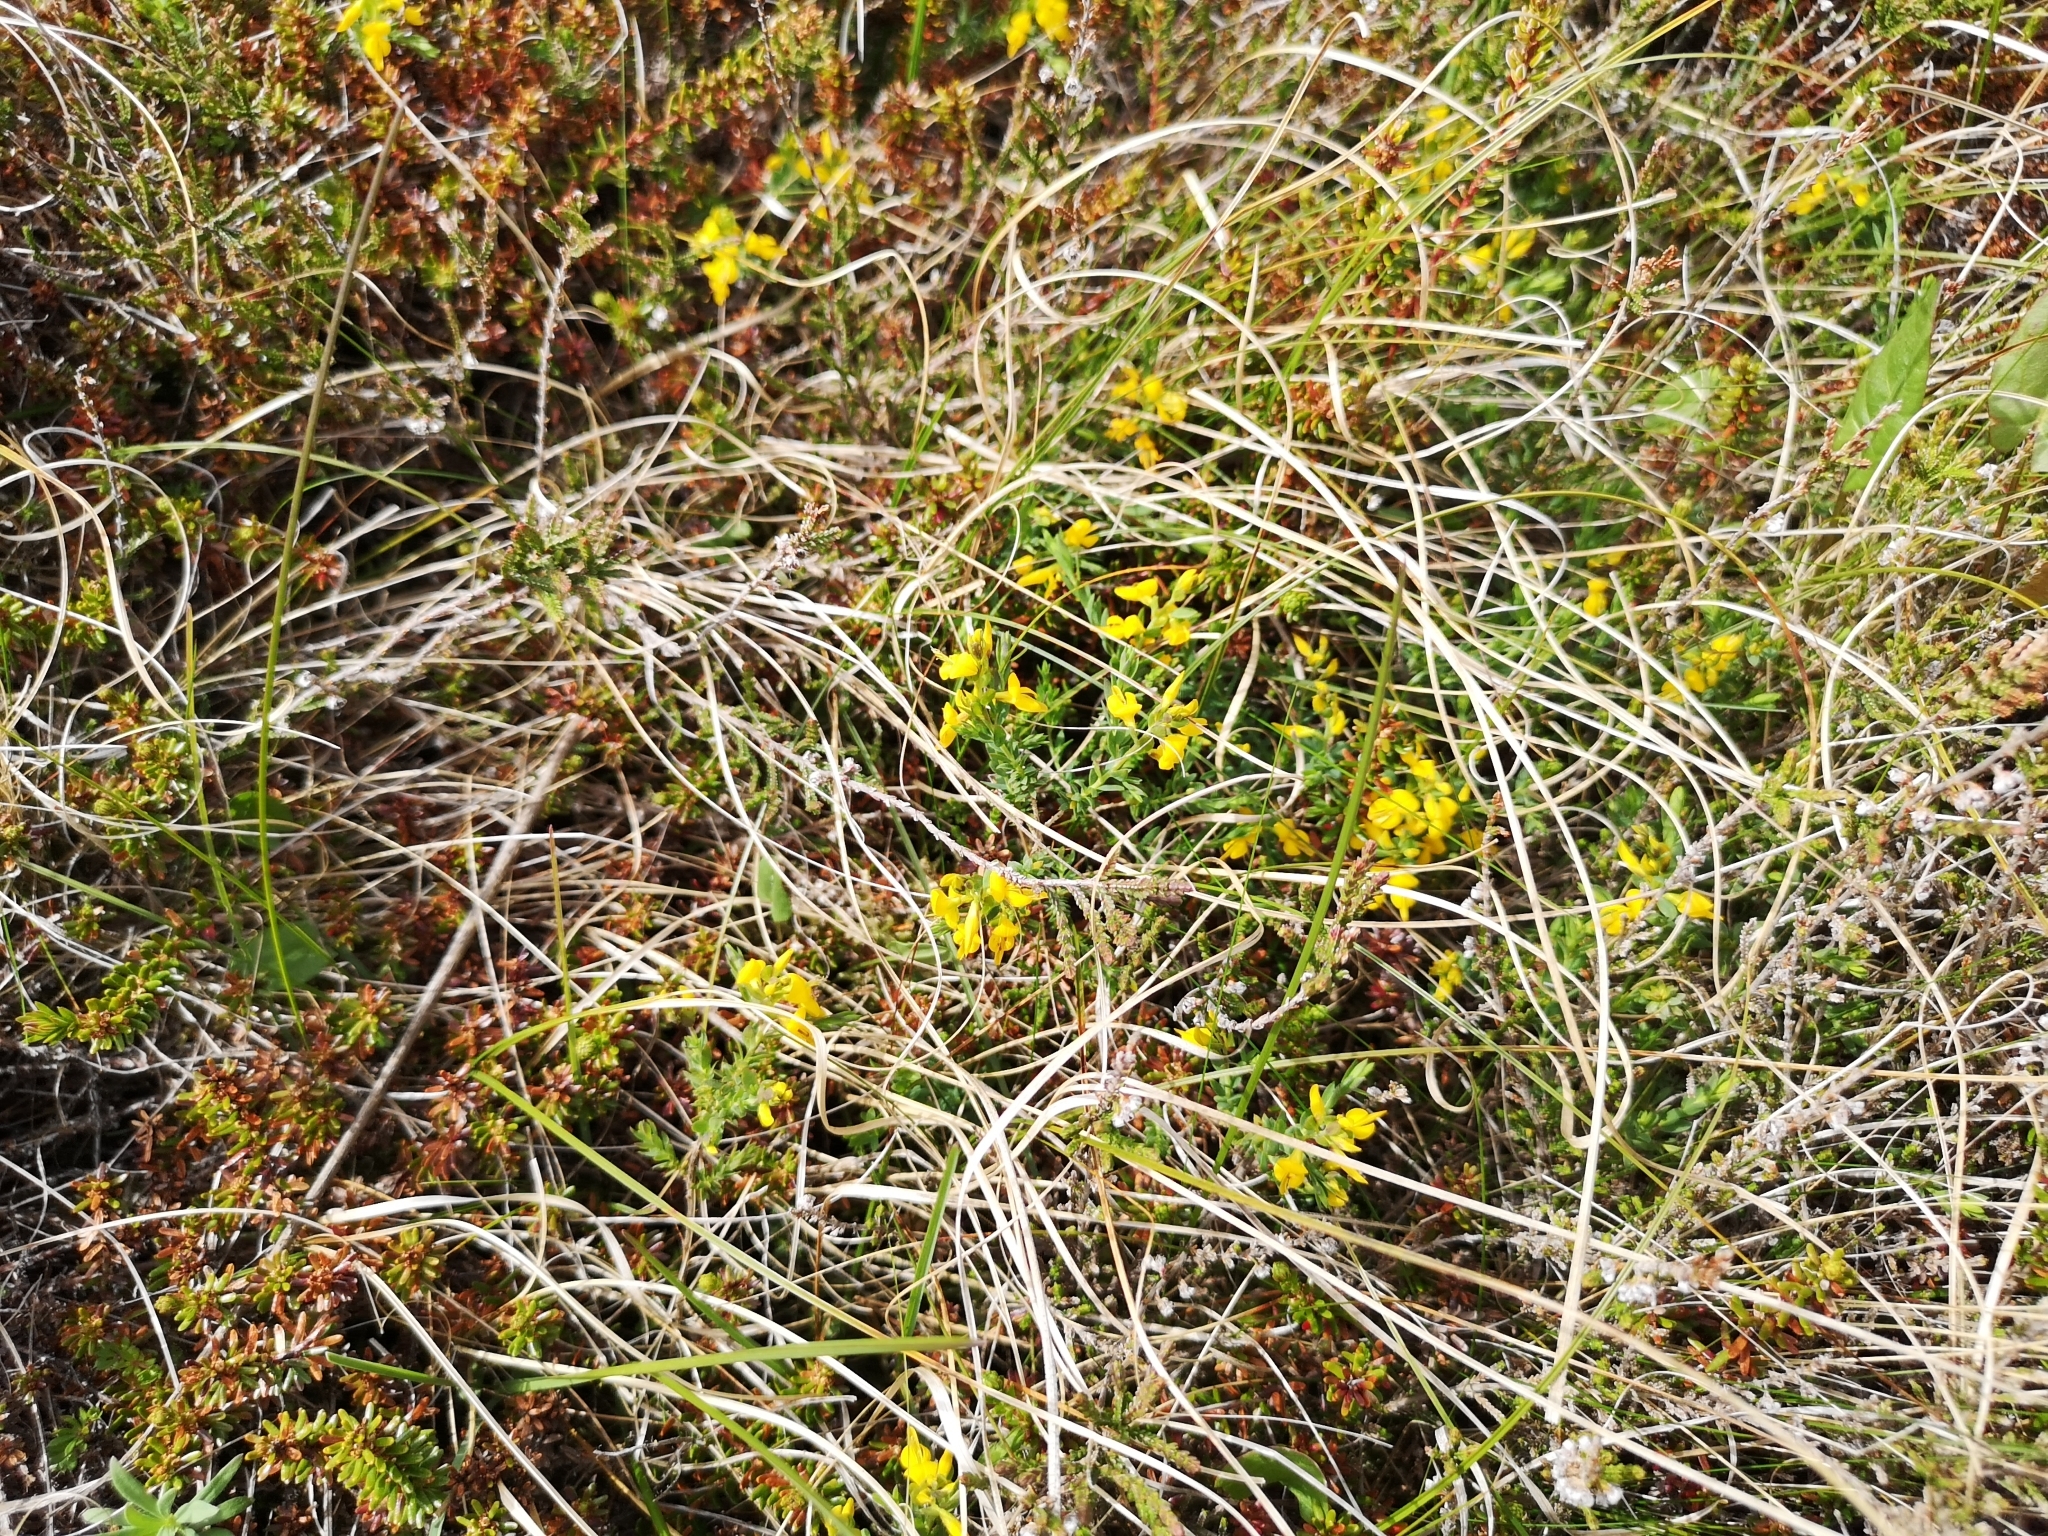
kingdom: Plantae
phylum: Tracheophyta
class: Magnoliopsida
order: Fabales
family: Fabaceae
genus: Genista
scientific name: Genista anglica
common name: Petty whin
